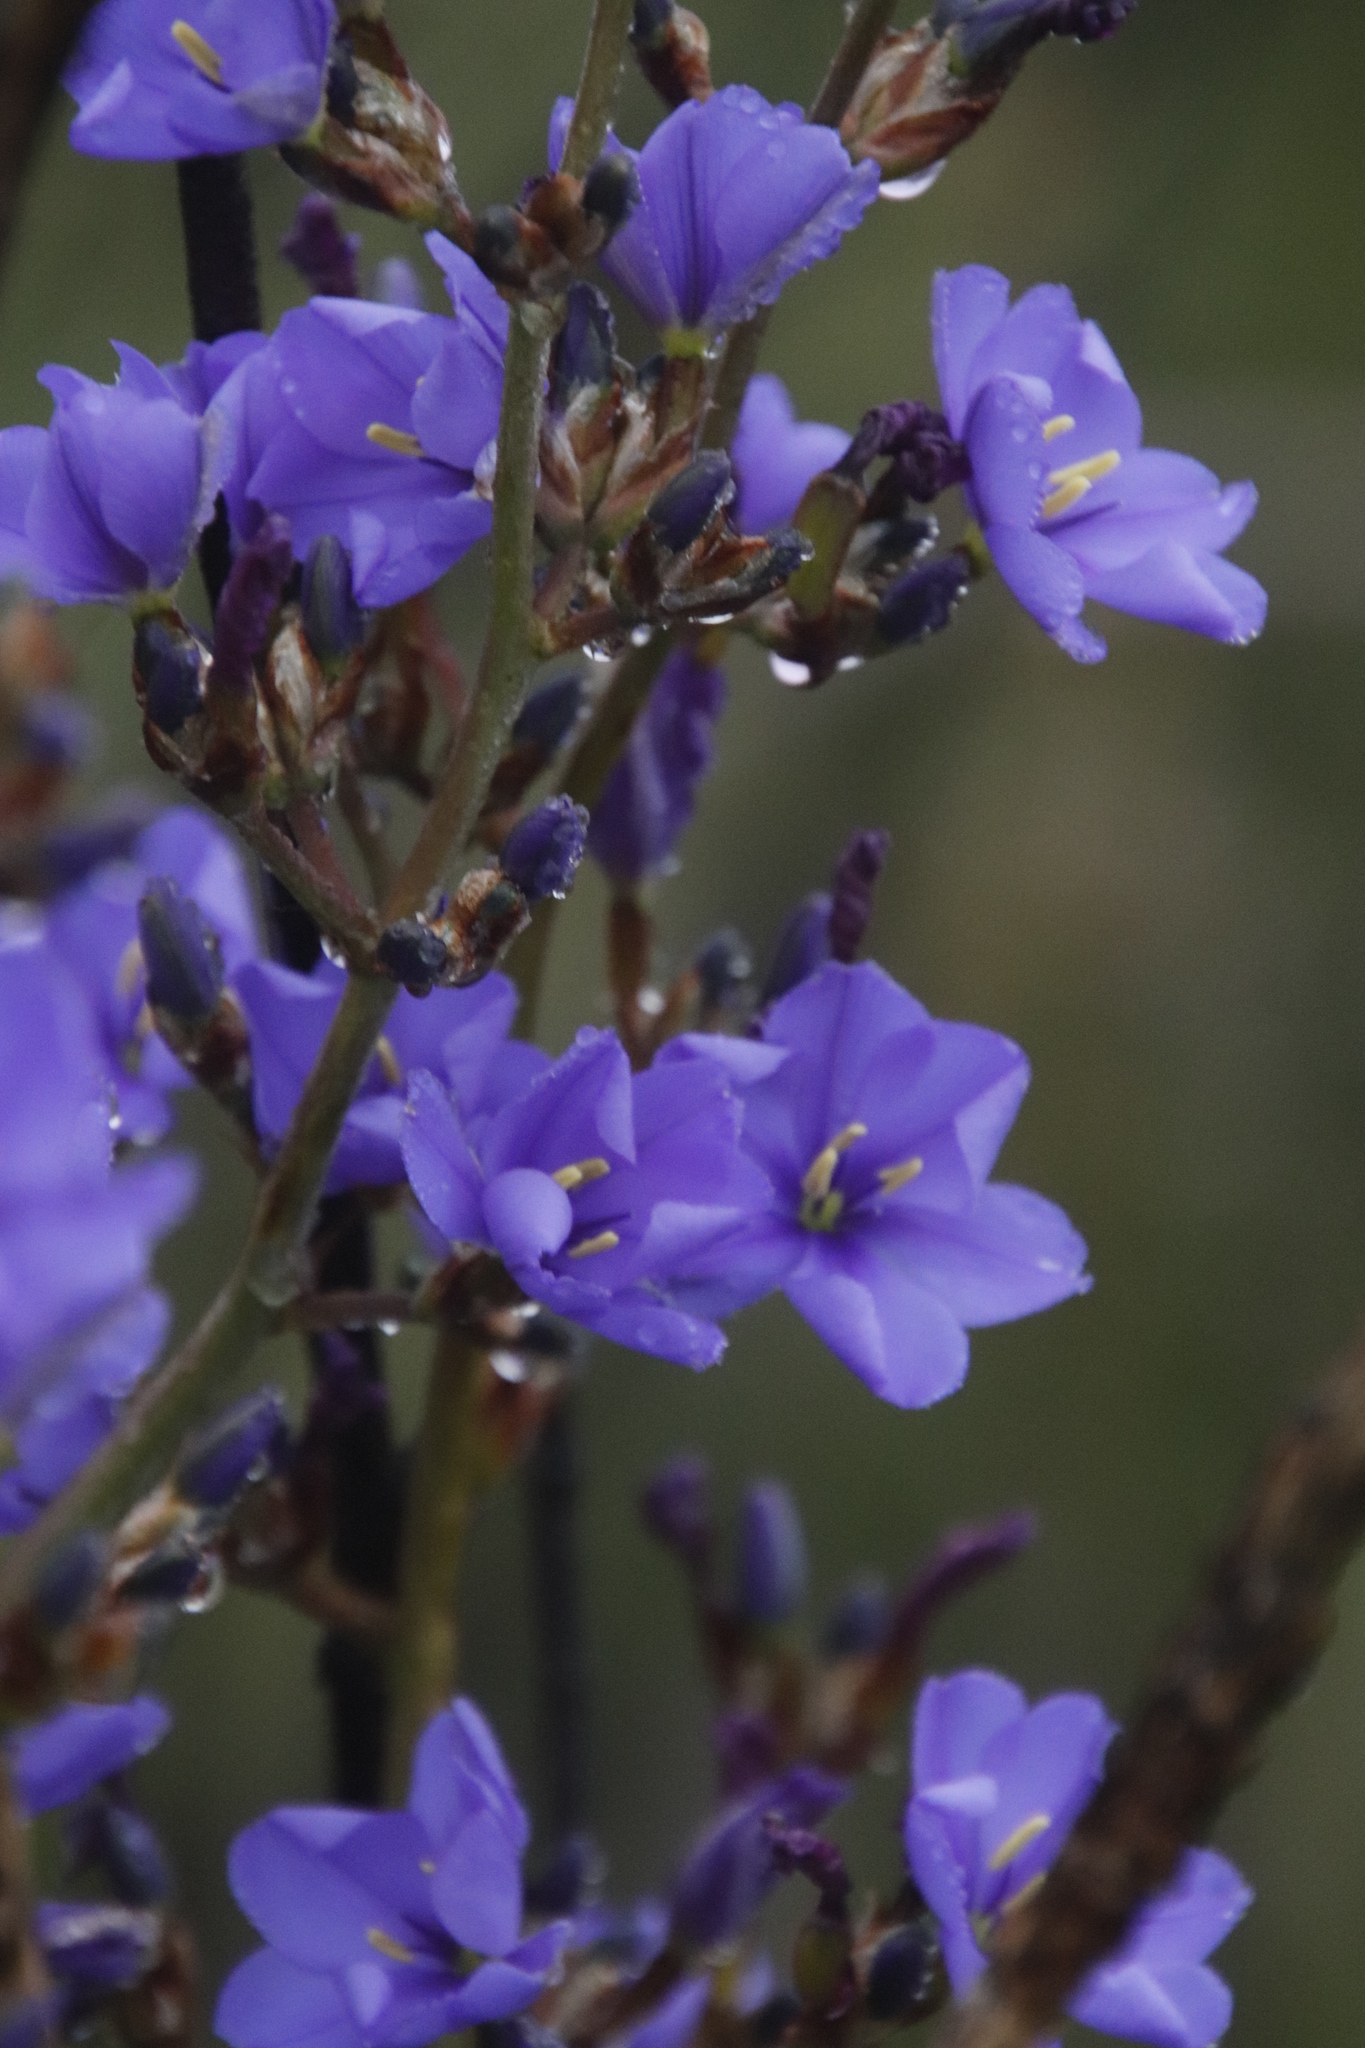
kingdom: Plantae
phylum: Tracheophyta
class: Liliopsida
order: Asparagales
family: Iridaceae
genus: Aristea
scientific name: Aristea bakeri
